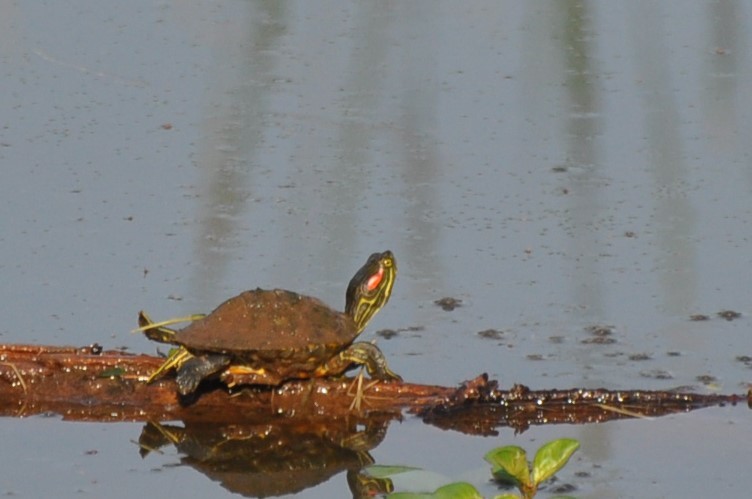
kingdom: Animalia
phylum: Chordata
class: Testudines
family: Emydidae
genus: Trachemys
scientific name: Trachemys scripta
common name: Slider
